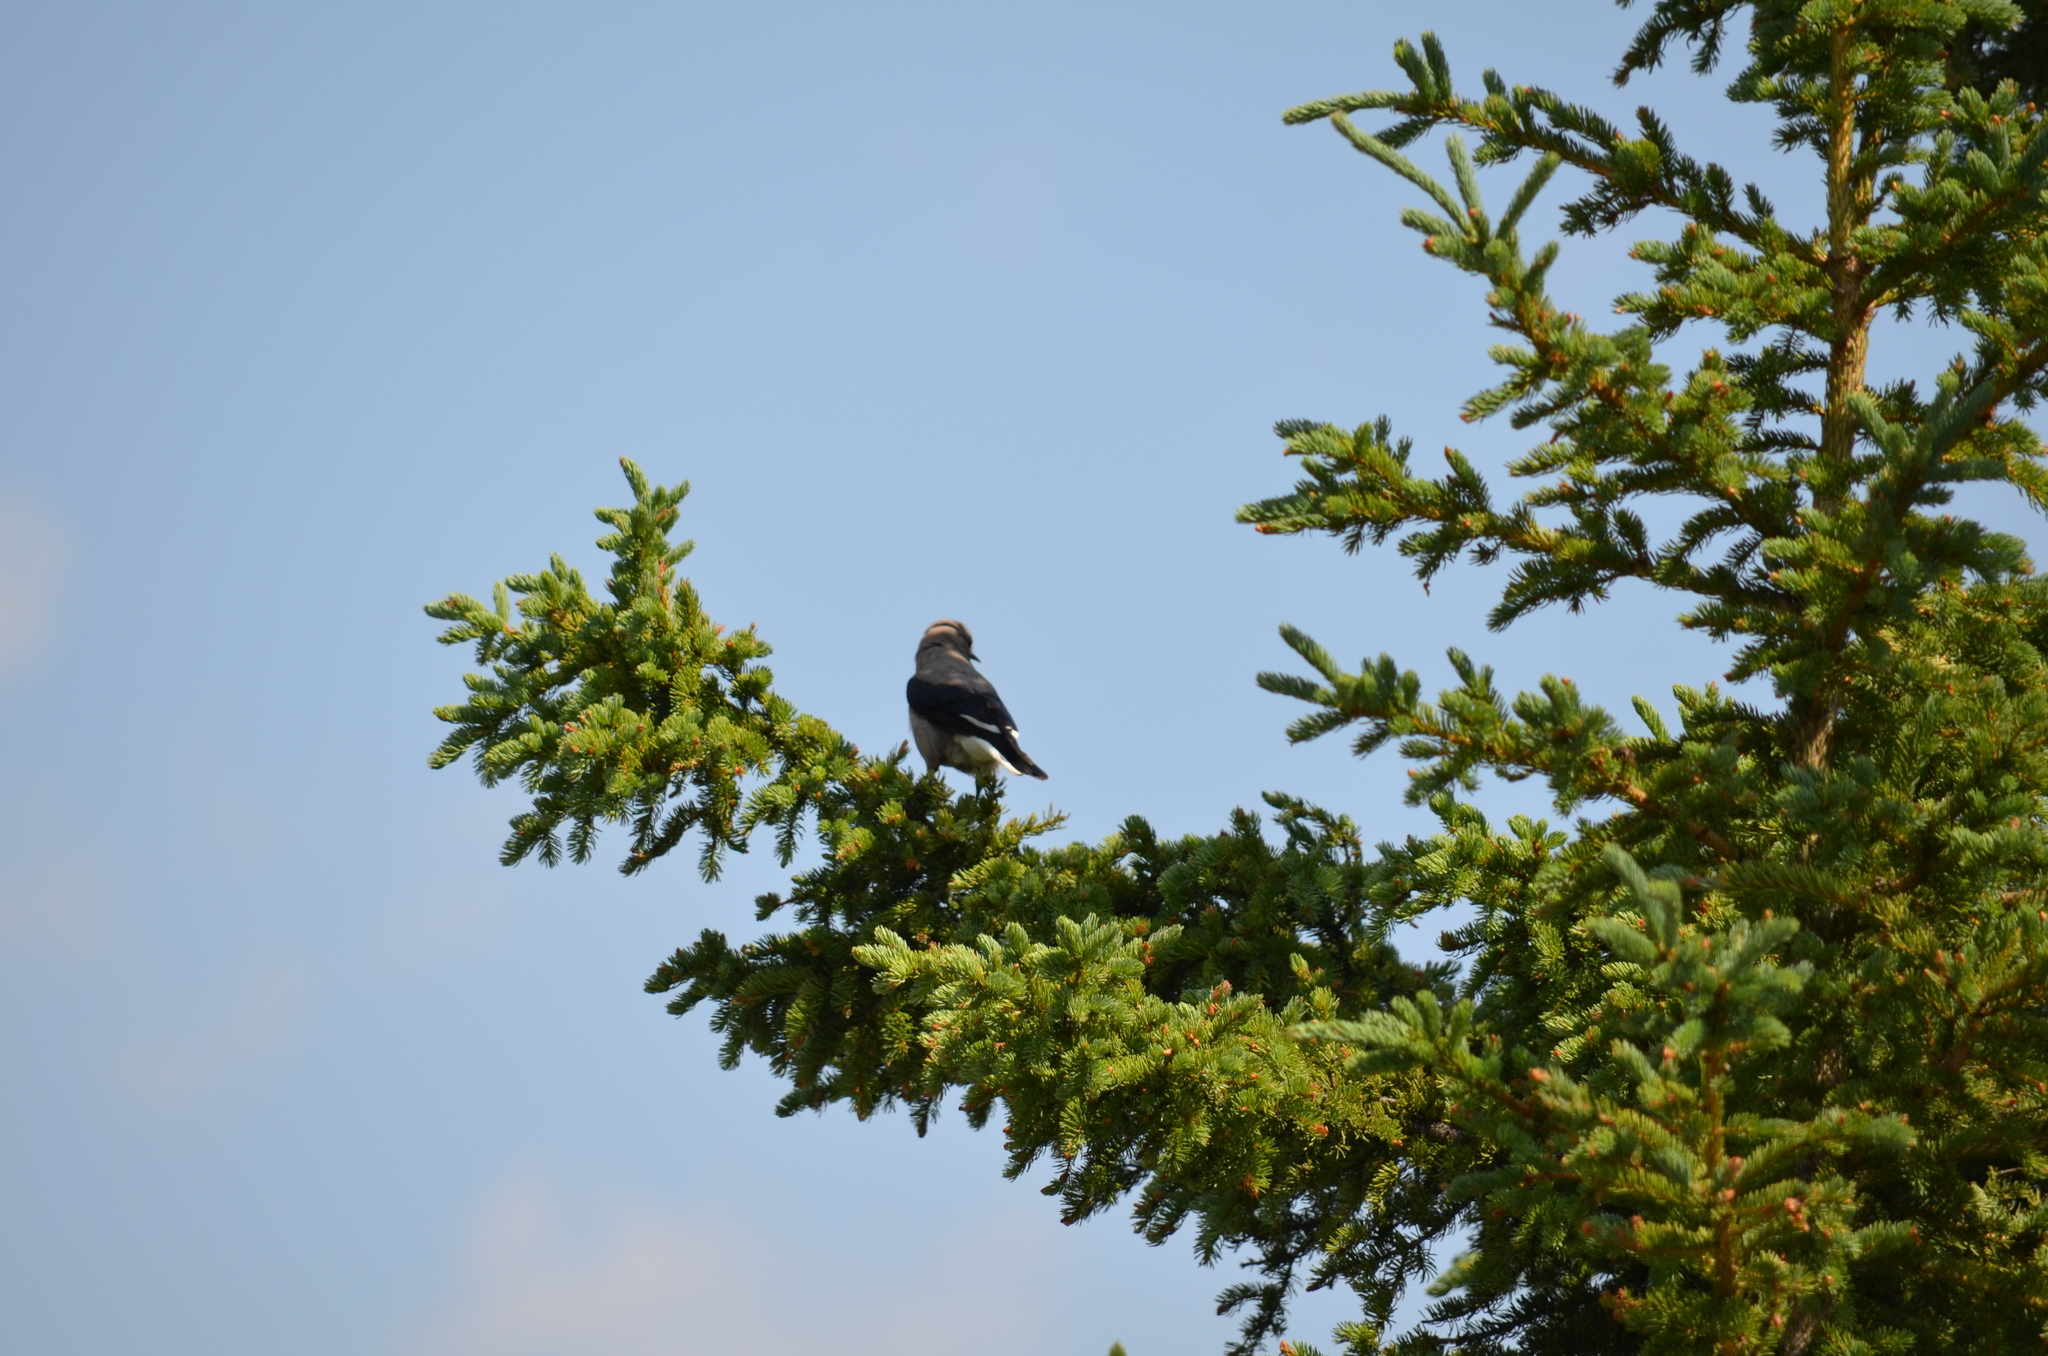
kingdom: Animalia
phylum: Chordata
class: Aves
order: Passeriformes
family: Corvidae
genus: Nucifraga
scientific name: Nucifraga columbiana
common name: Clark's nutcracker
